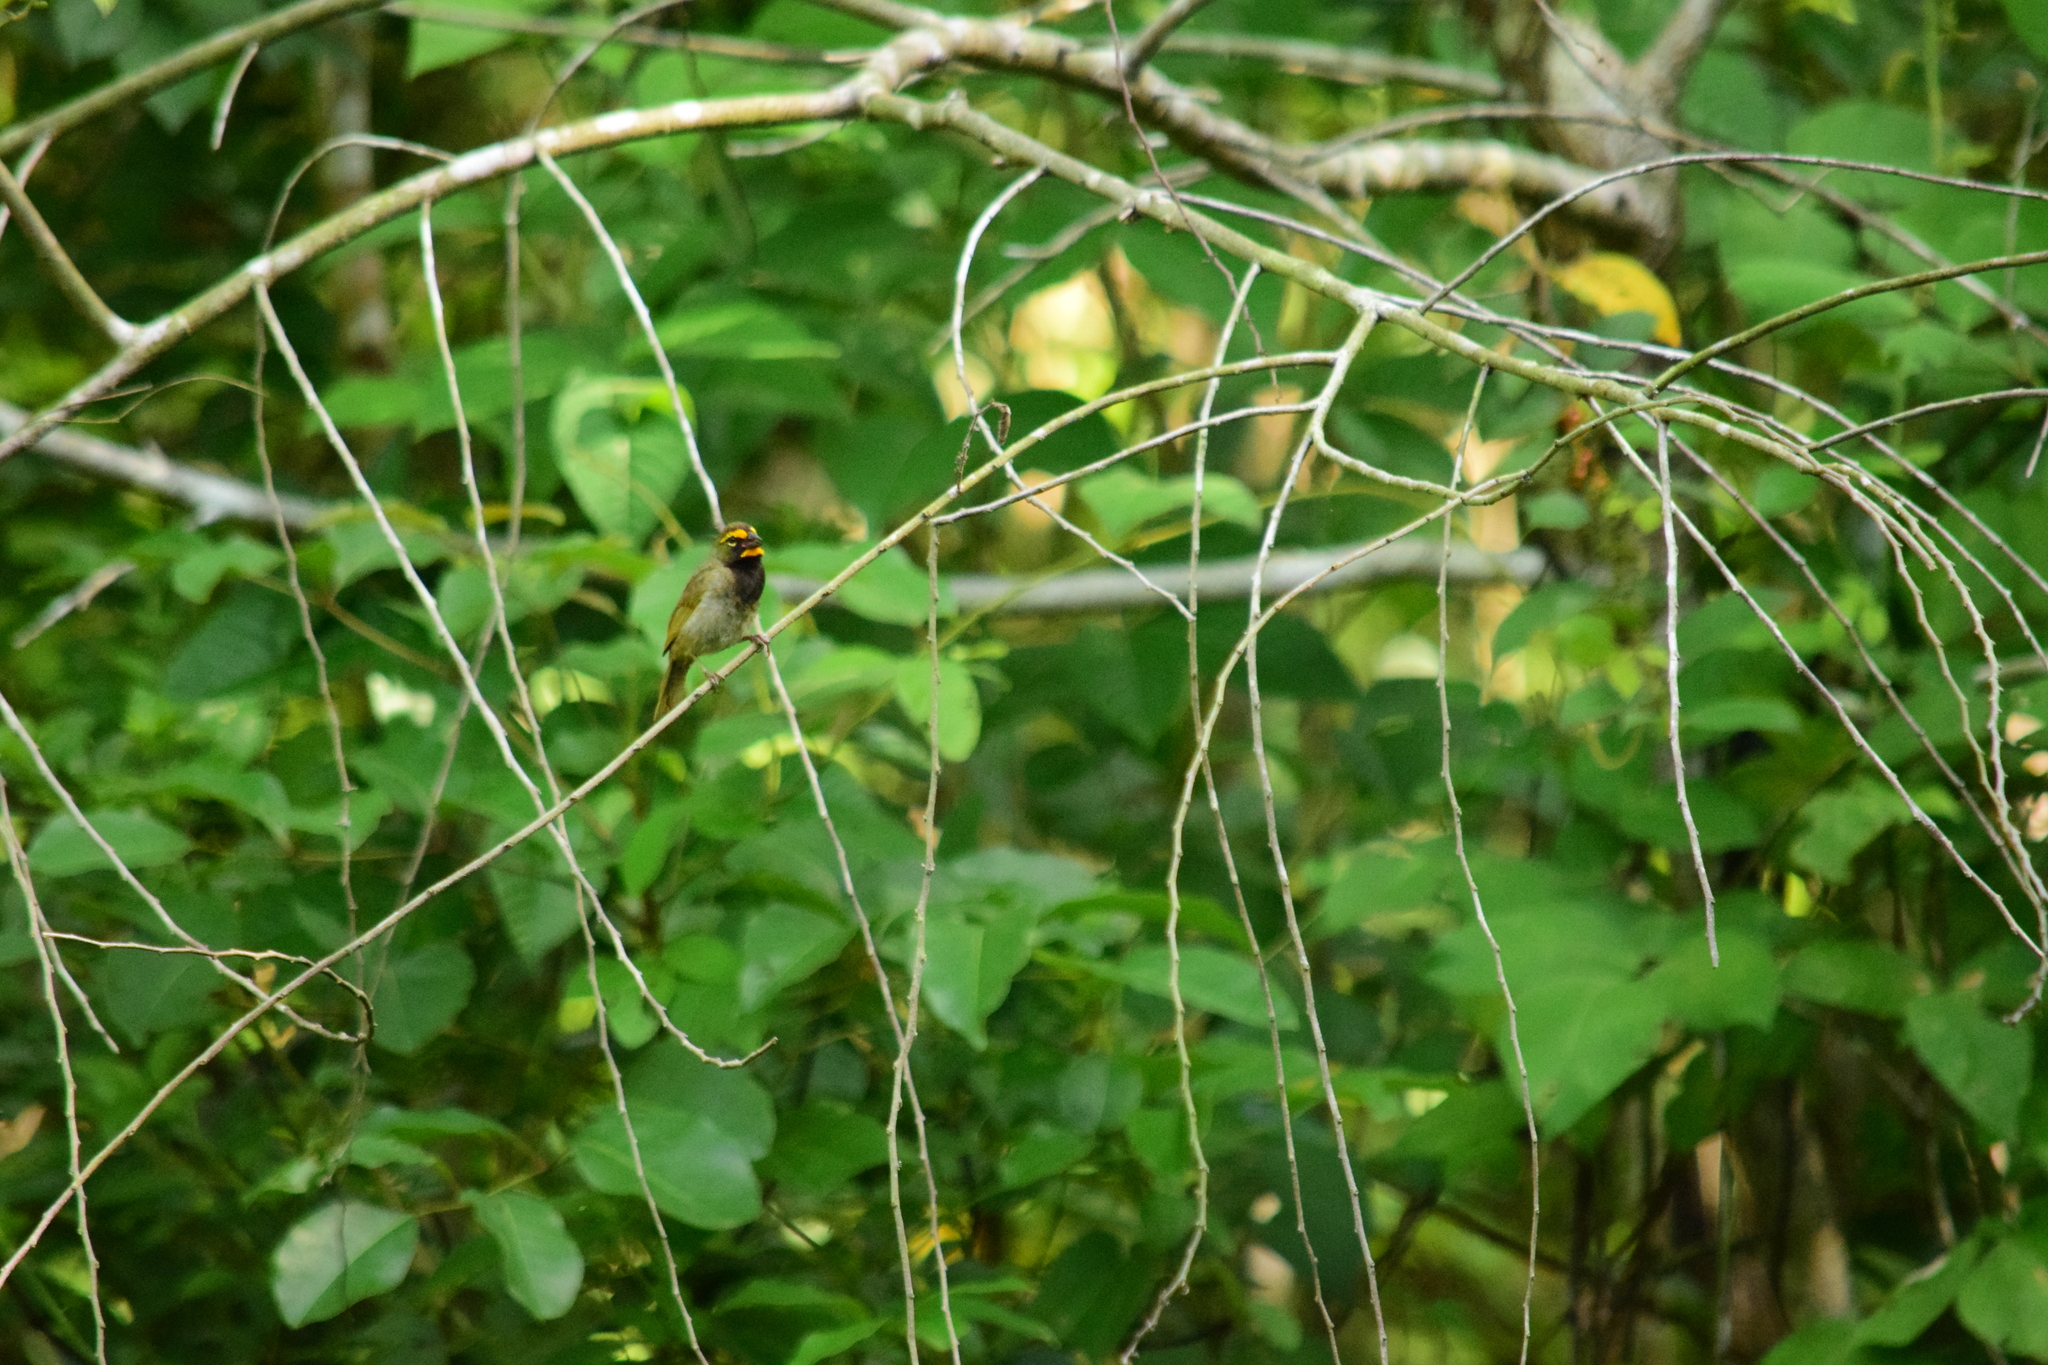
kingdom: Animalia
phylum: Chordata
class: Aves
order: Passeriformes
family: Thraupidae
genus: Tiaris
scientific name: Tiaris olivaceus
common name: Yellow-faced grassquit
